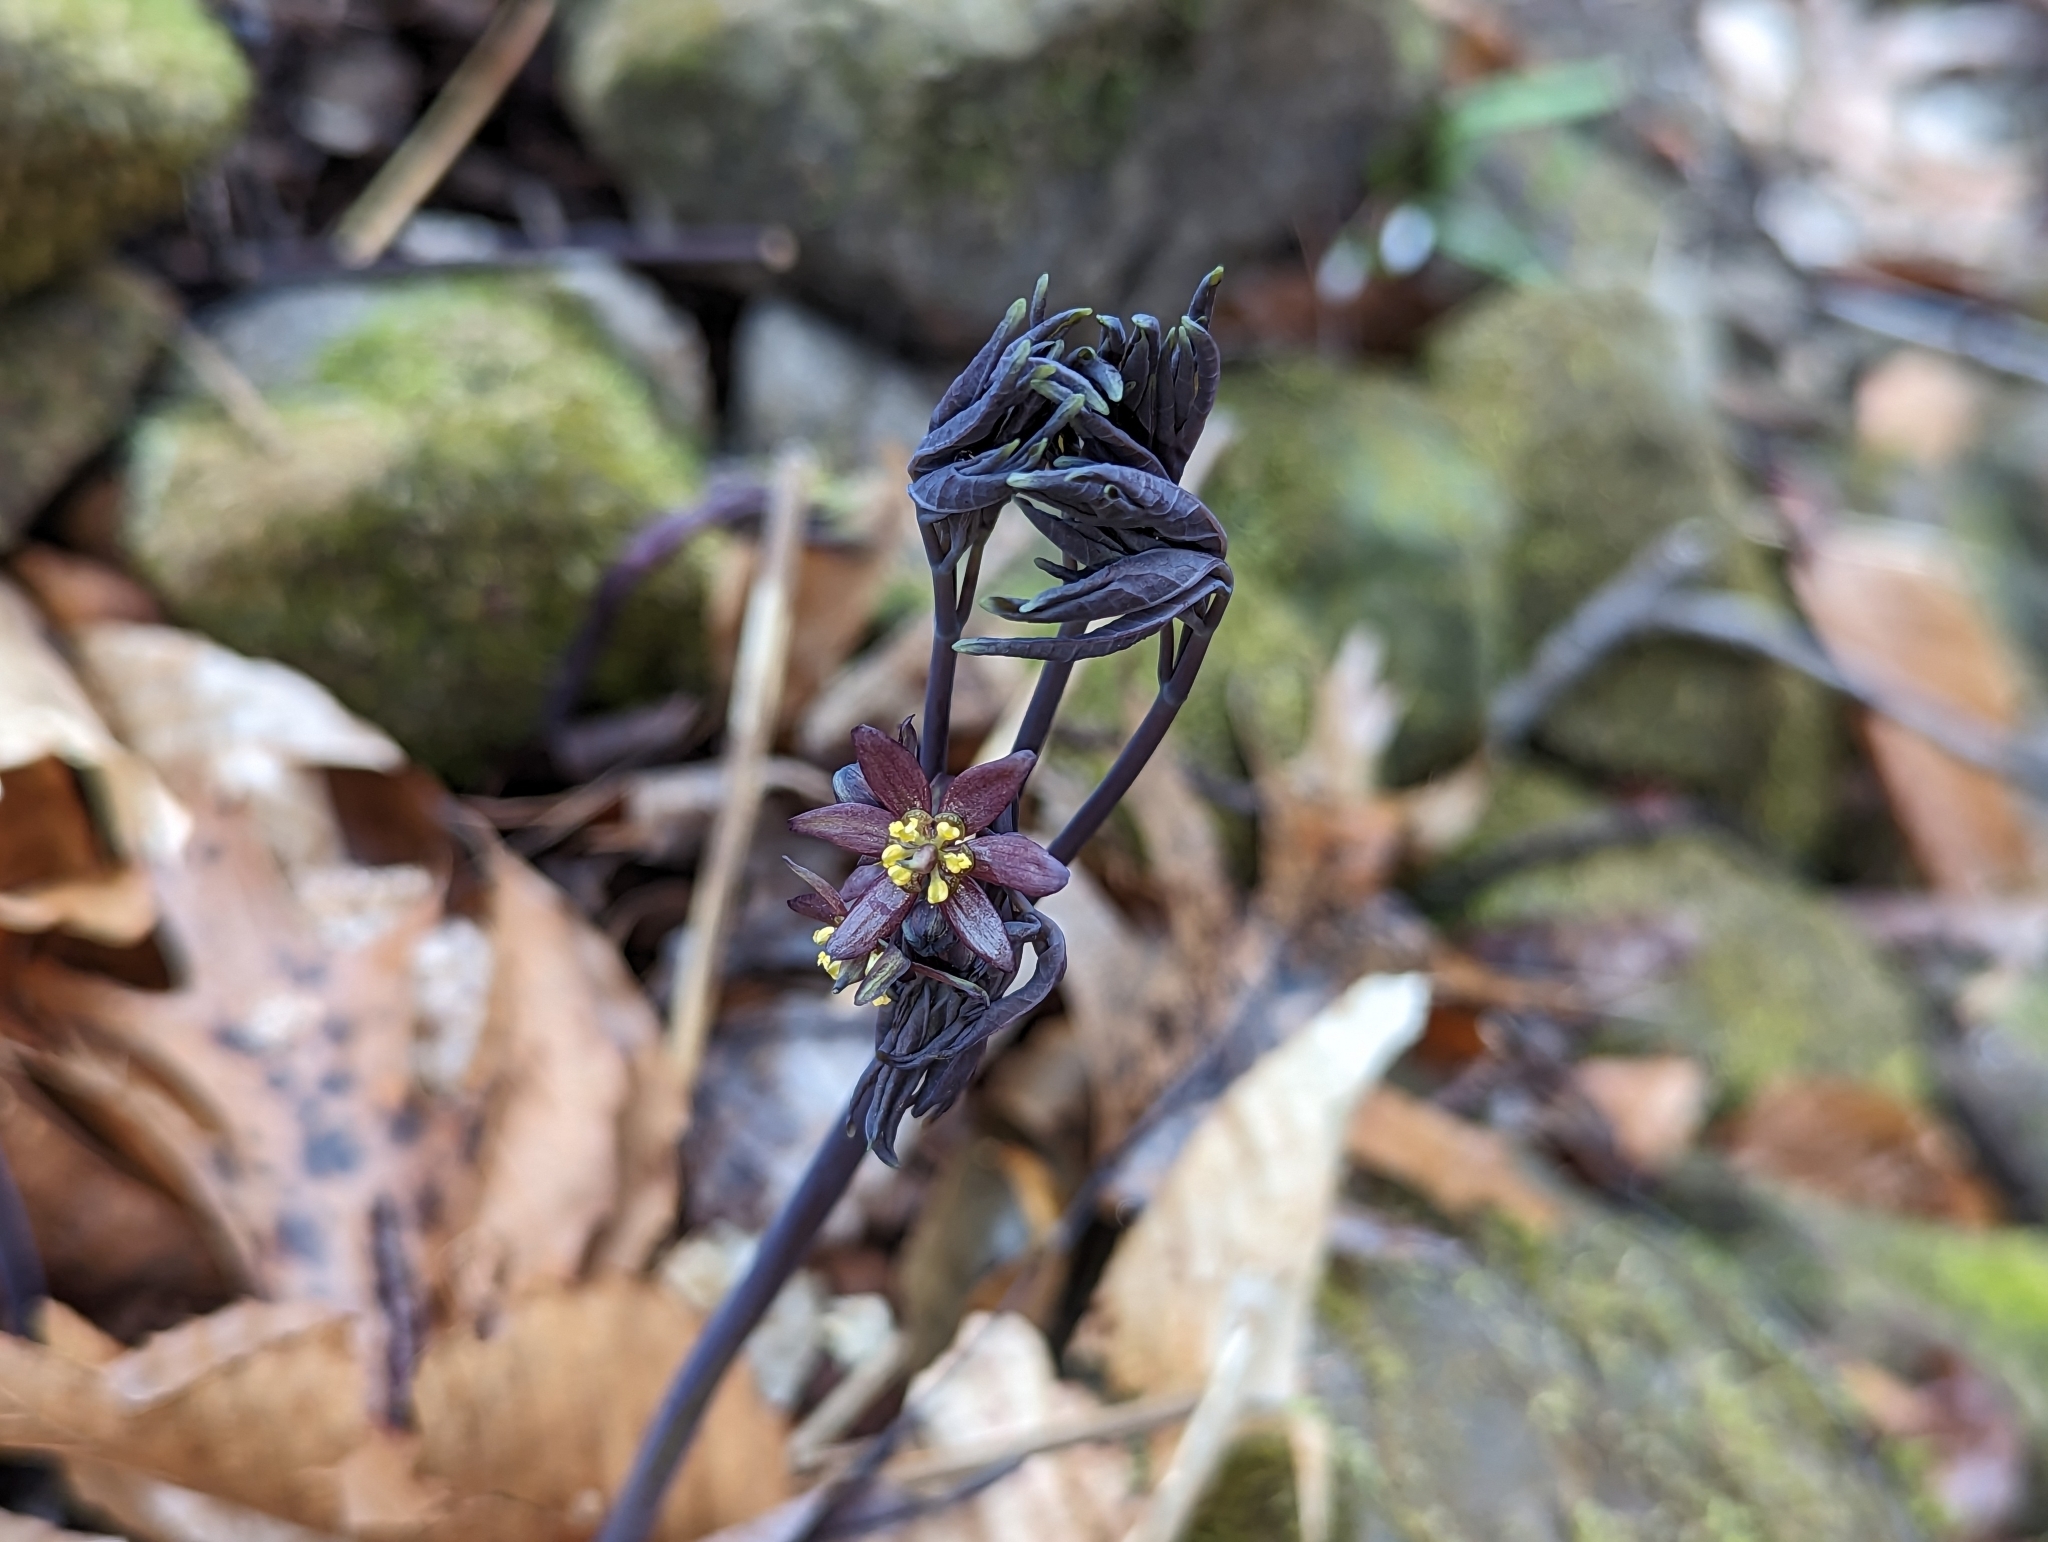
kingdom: Plantae
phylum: Tracheophyta
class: Magnoliopsida
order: Ranunculales
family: Berberidaceae
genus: Caulophyllum
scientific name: Caulophyllum giganteum
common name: Blue cohosh
